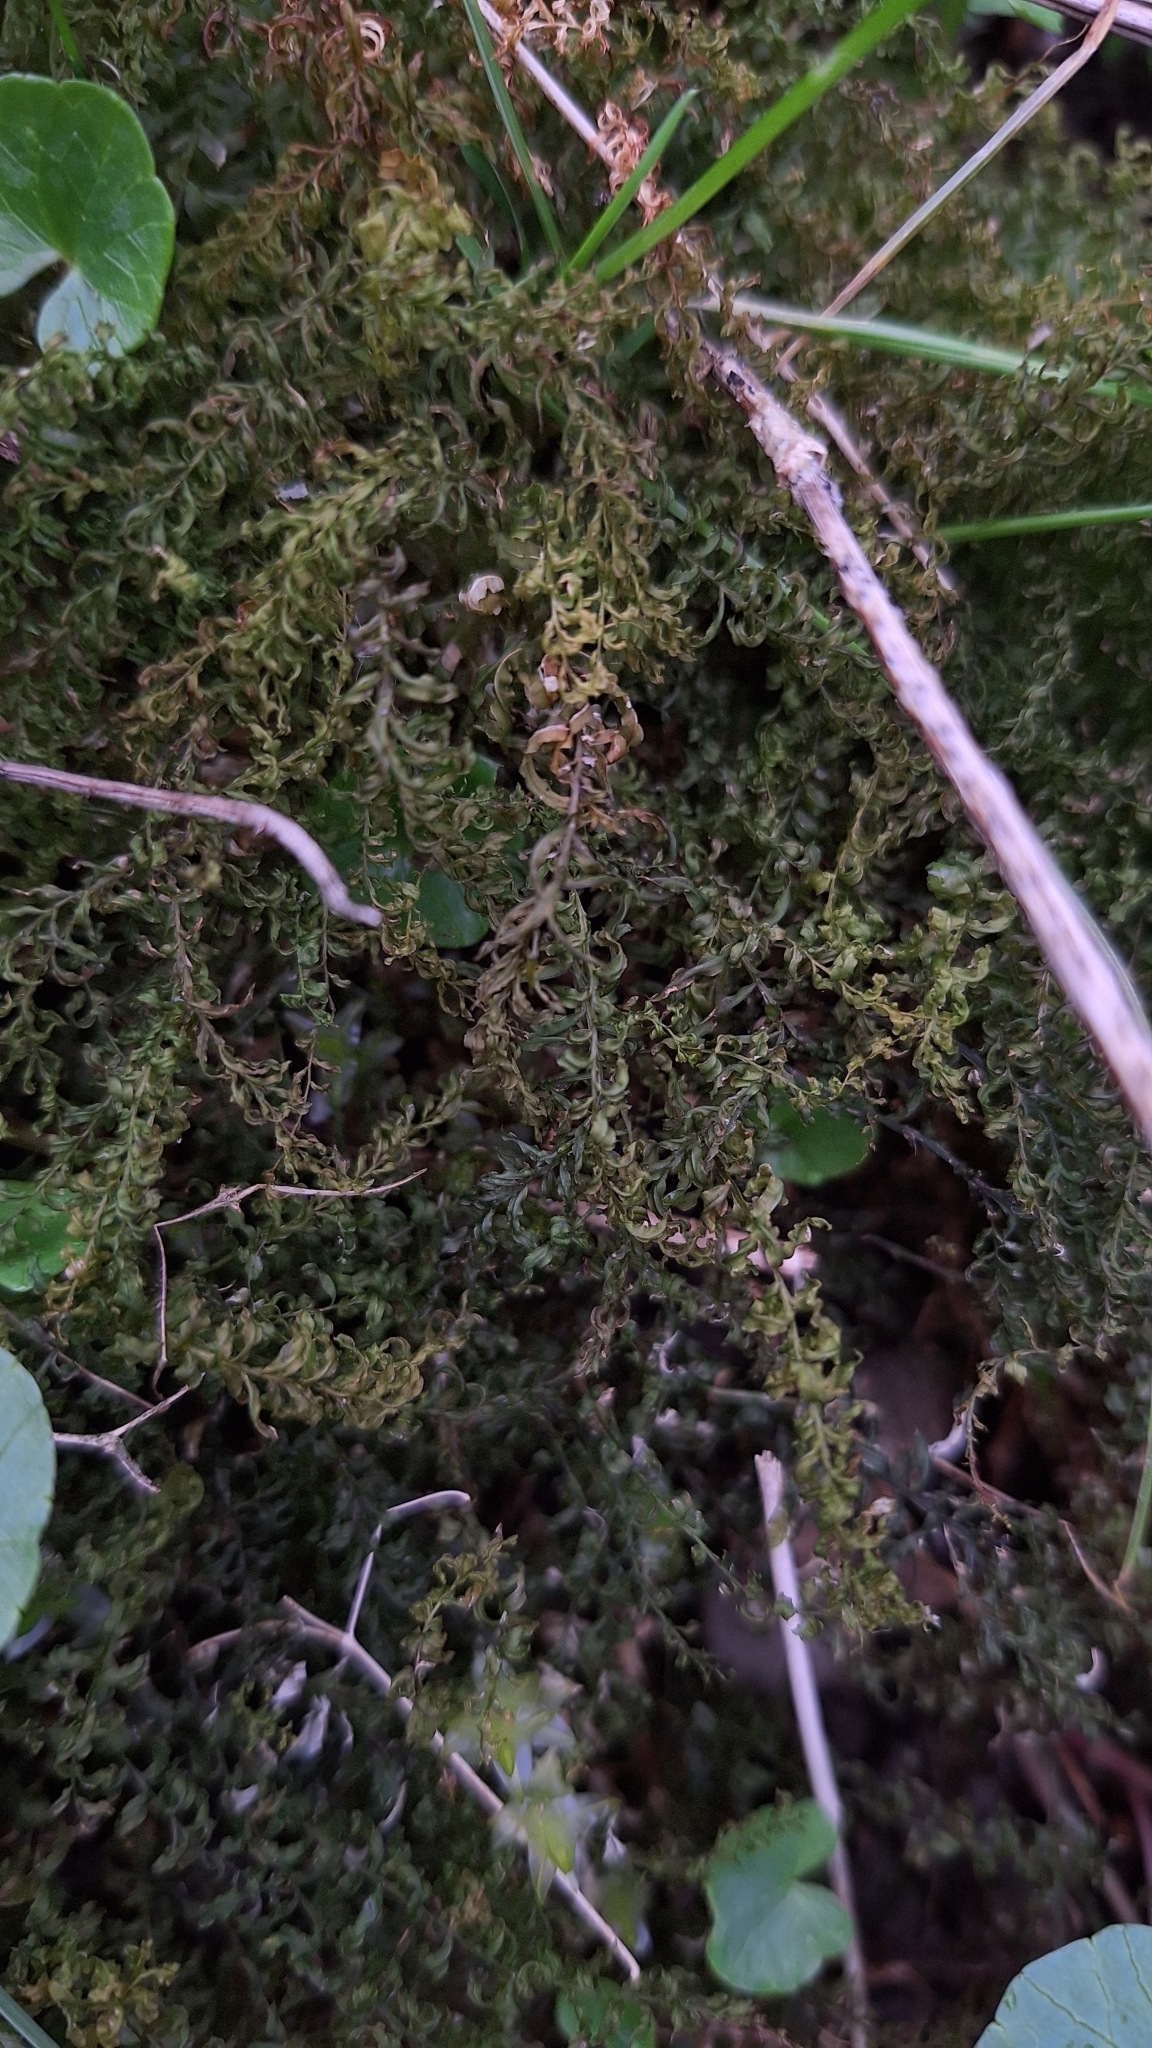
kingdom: Plantae
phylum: Bryophyta
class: Bryopsida
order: Bryales
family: Mniaceae
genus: Plagiomnium
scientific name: Plagiomnium undulatum
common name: Hart's-tongue thyme-moss
